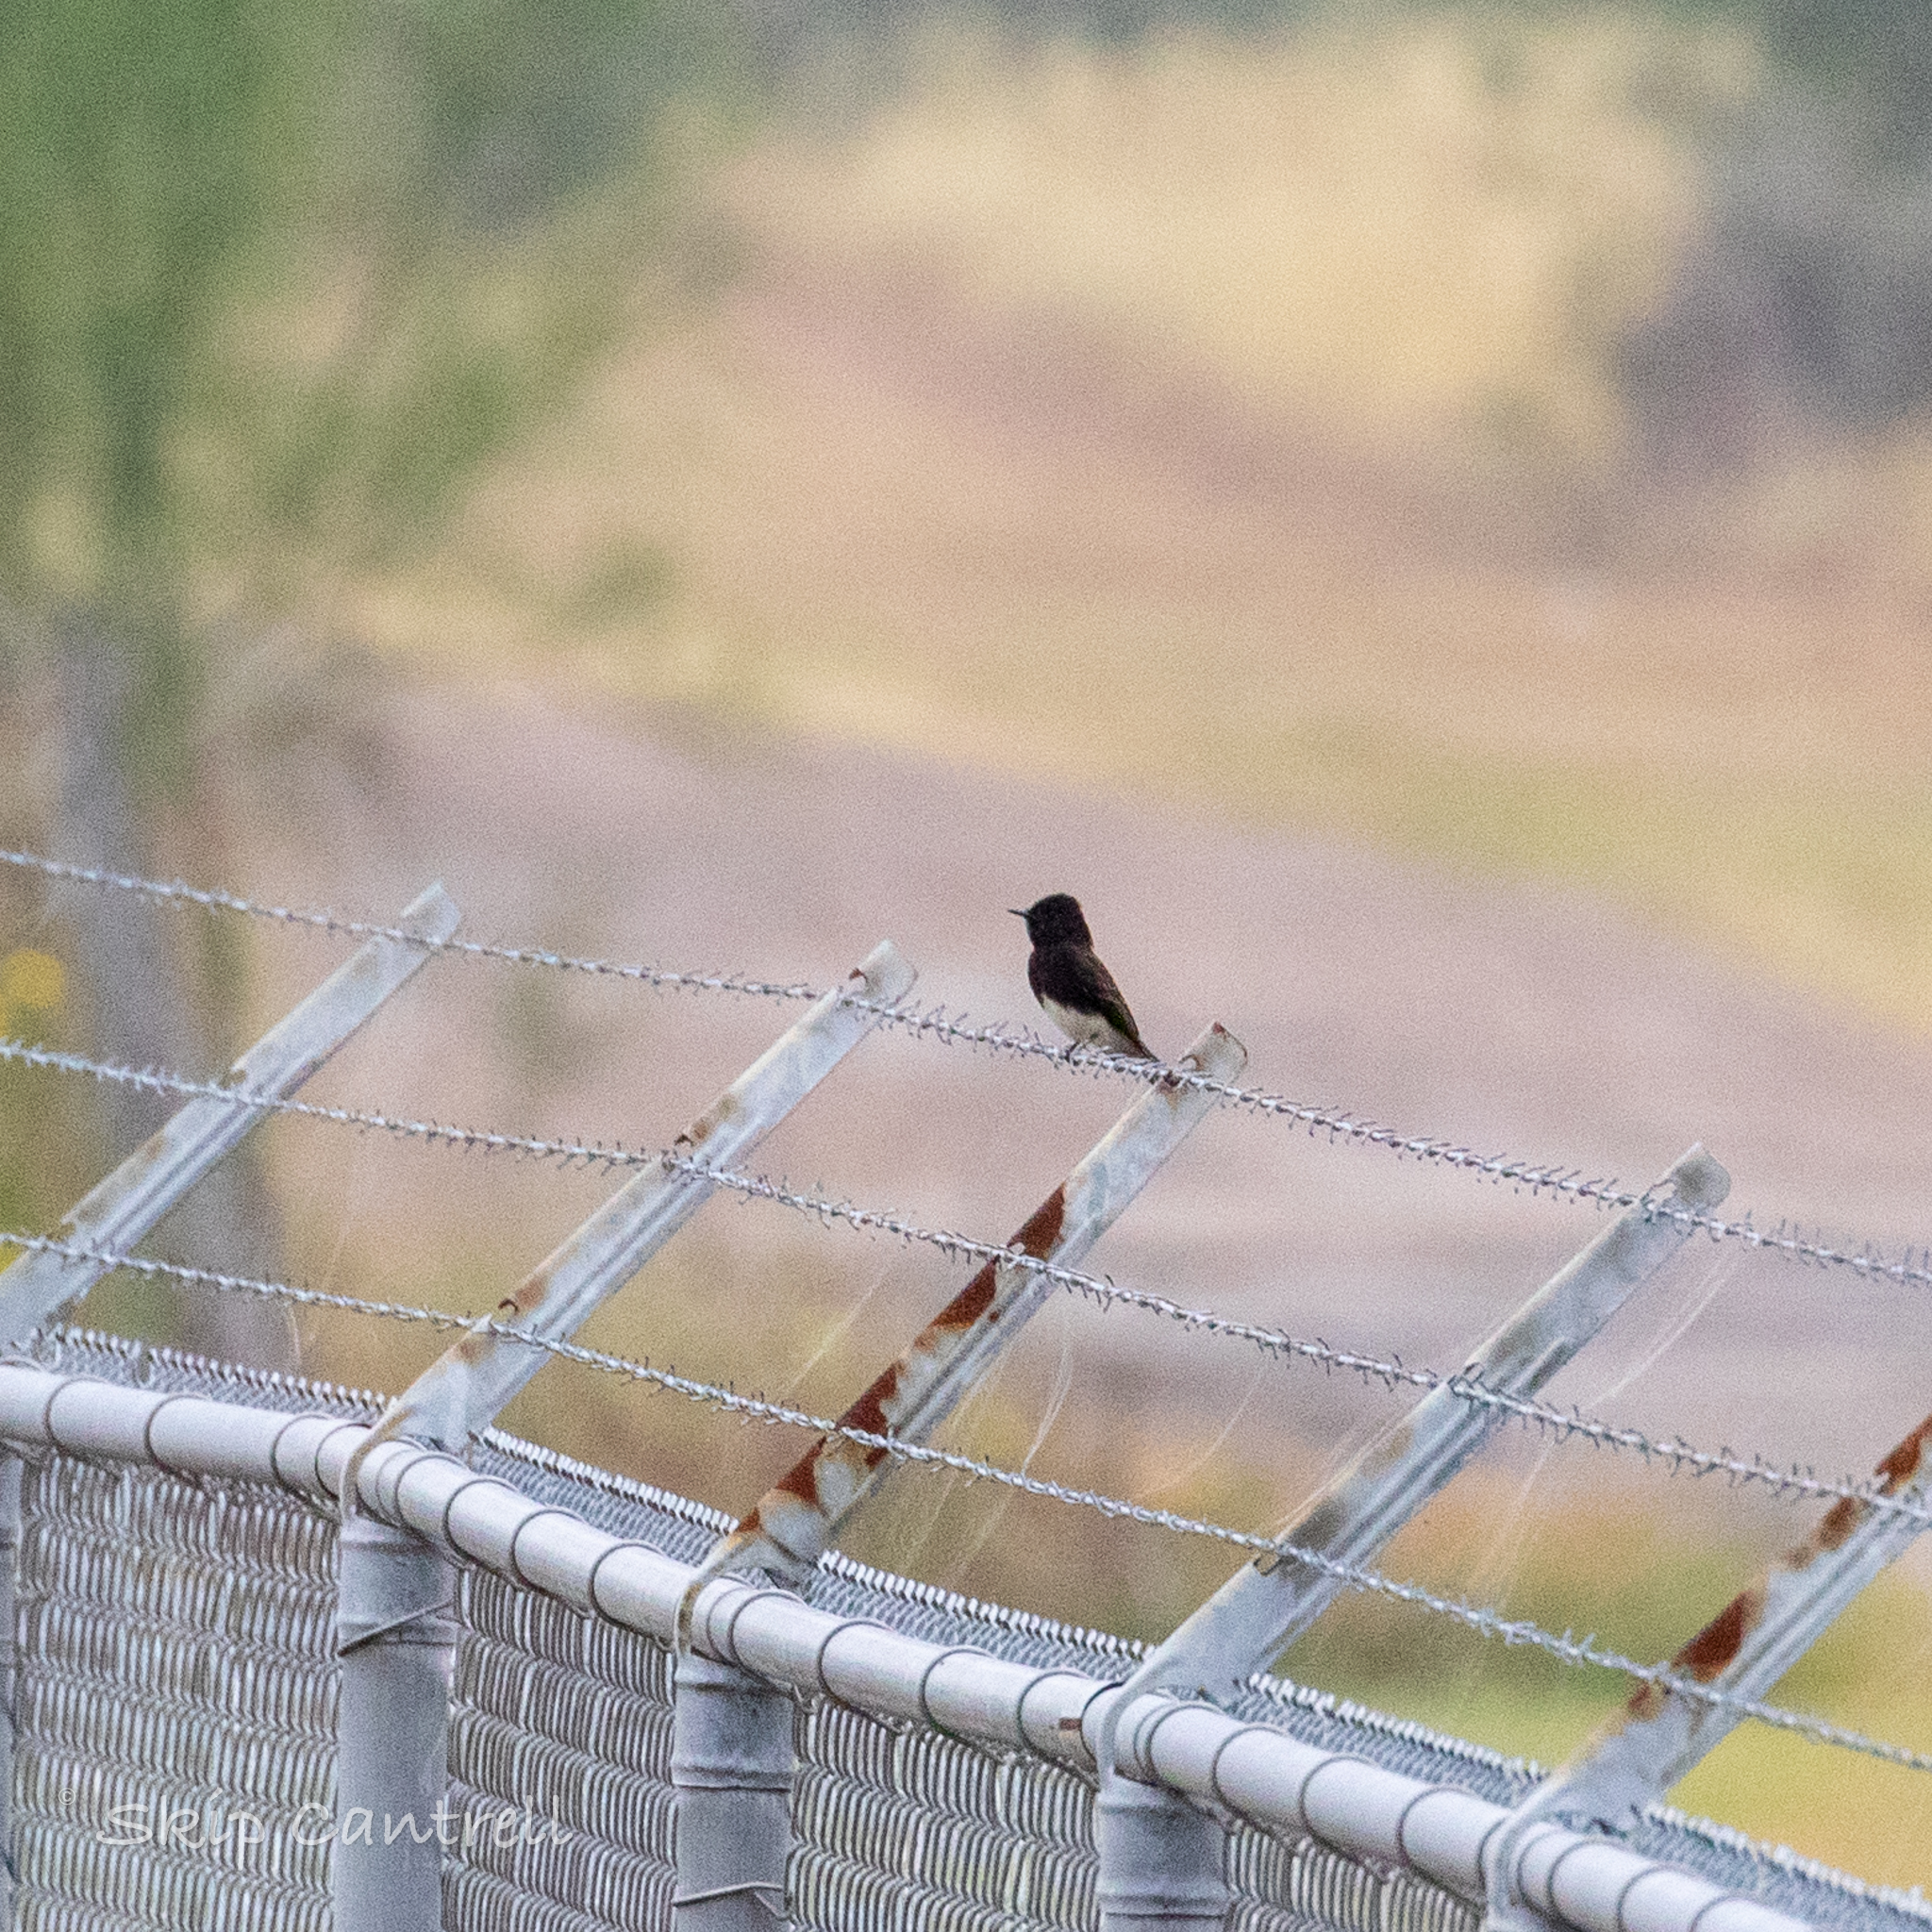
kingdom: Animalia
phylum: Chordata
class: Aves
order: Passeriformes
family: Tyrannidae
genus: Sayornis
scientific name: Sayornis nigricans
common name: Black phoebe
